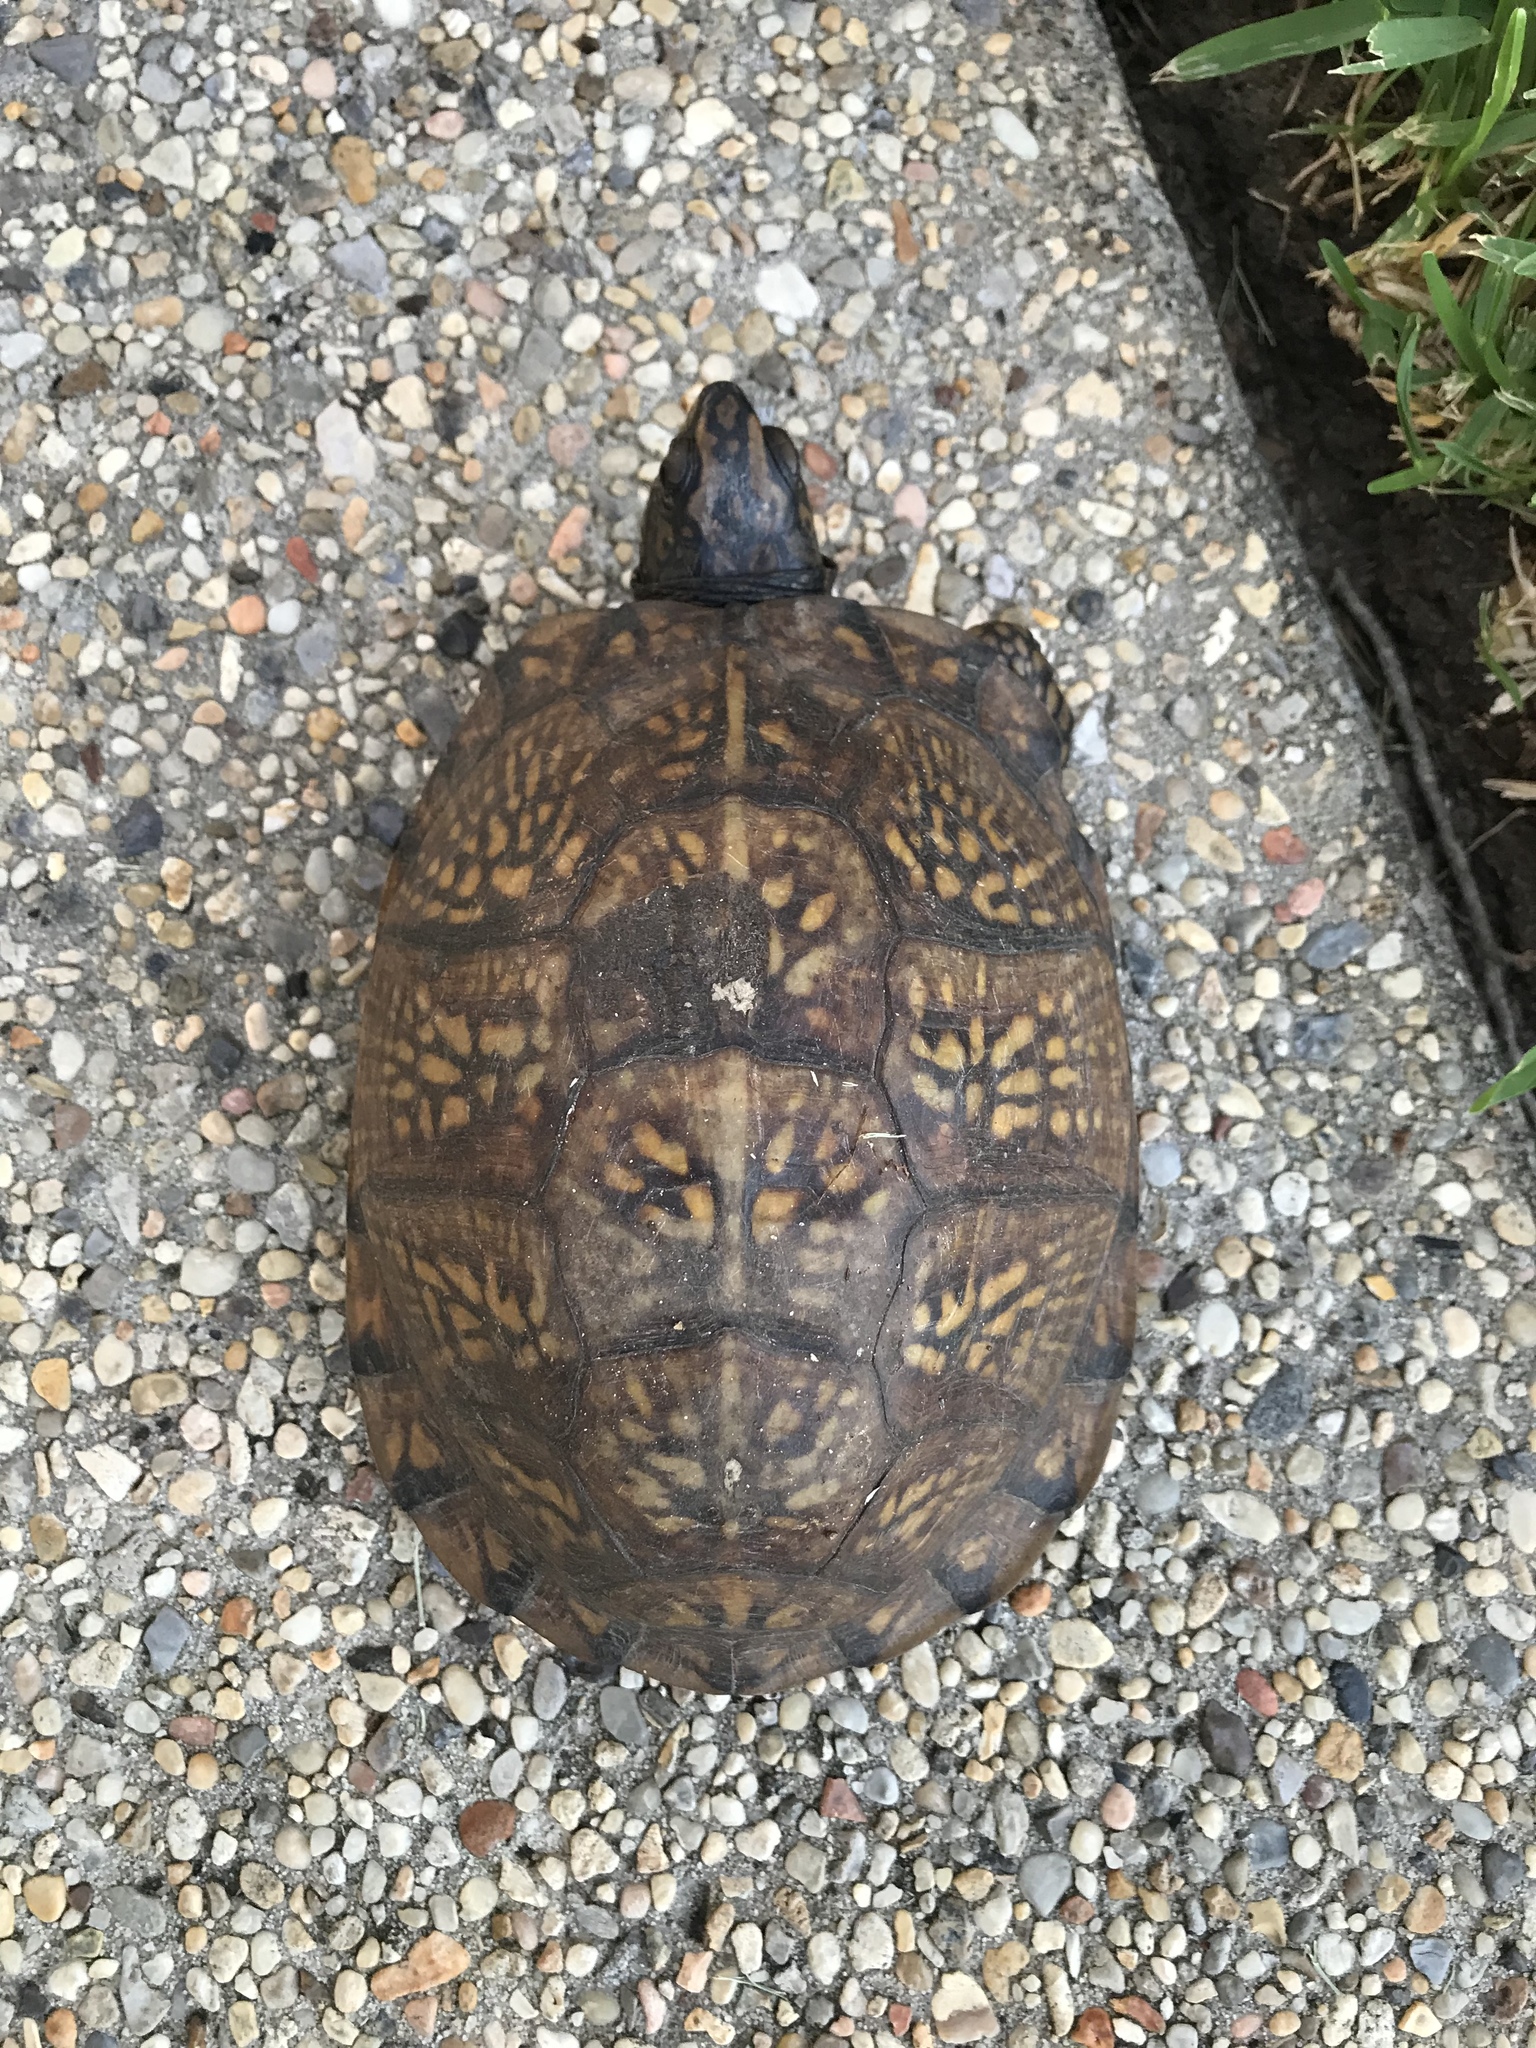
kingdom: Animalia
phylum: Chordata
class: Testudines
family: Emydidae
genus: Terrapene
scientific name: Terrapene carolina
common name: Common box turtle
